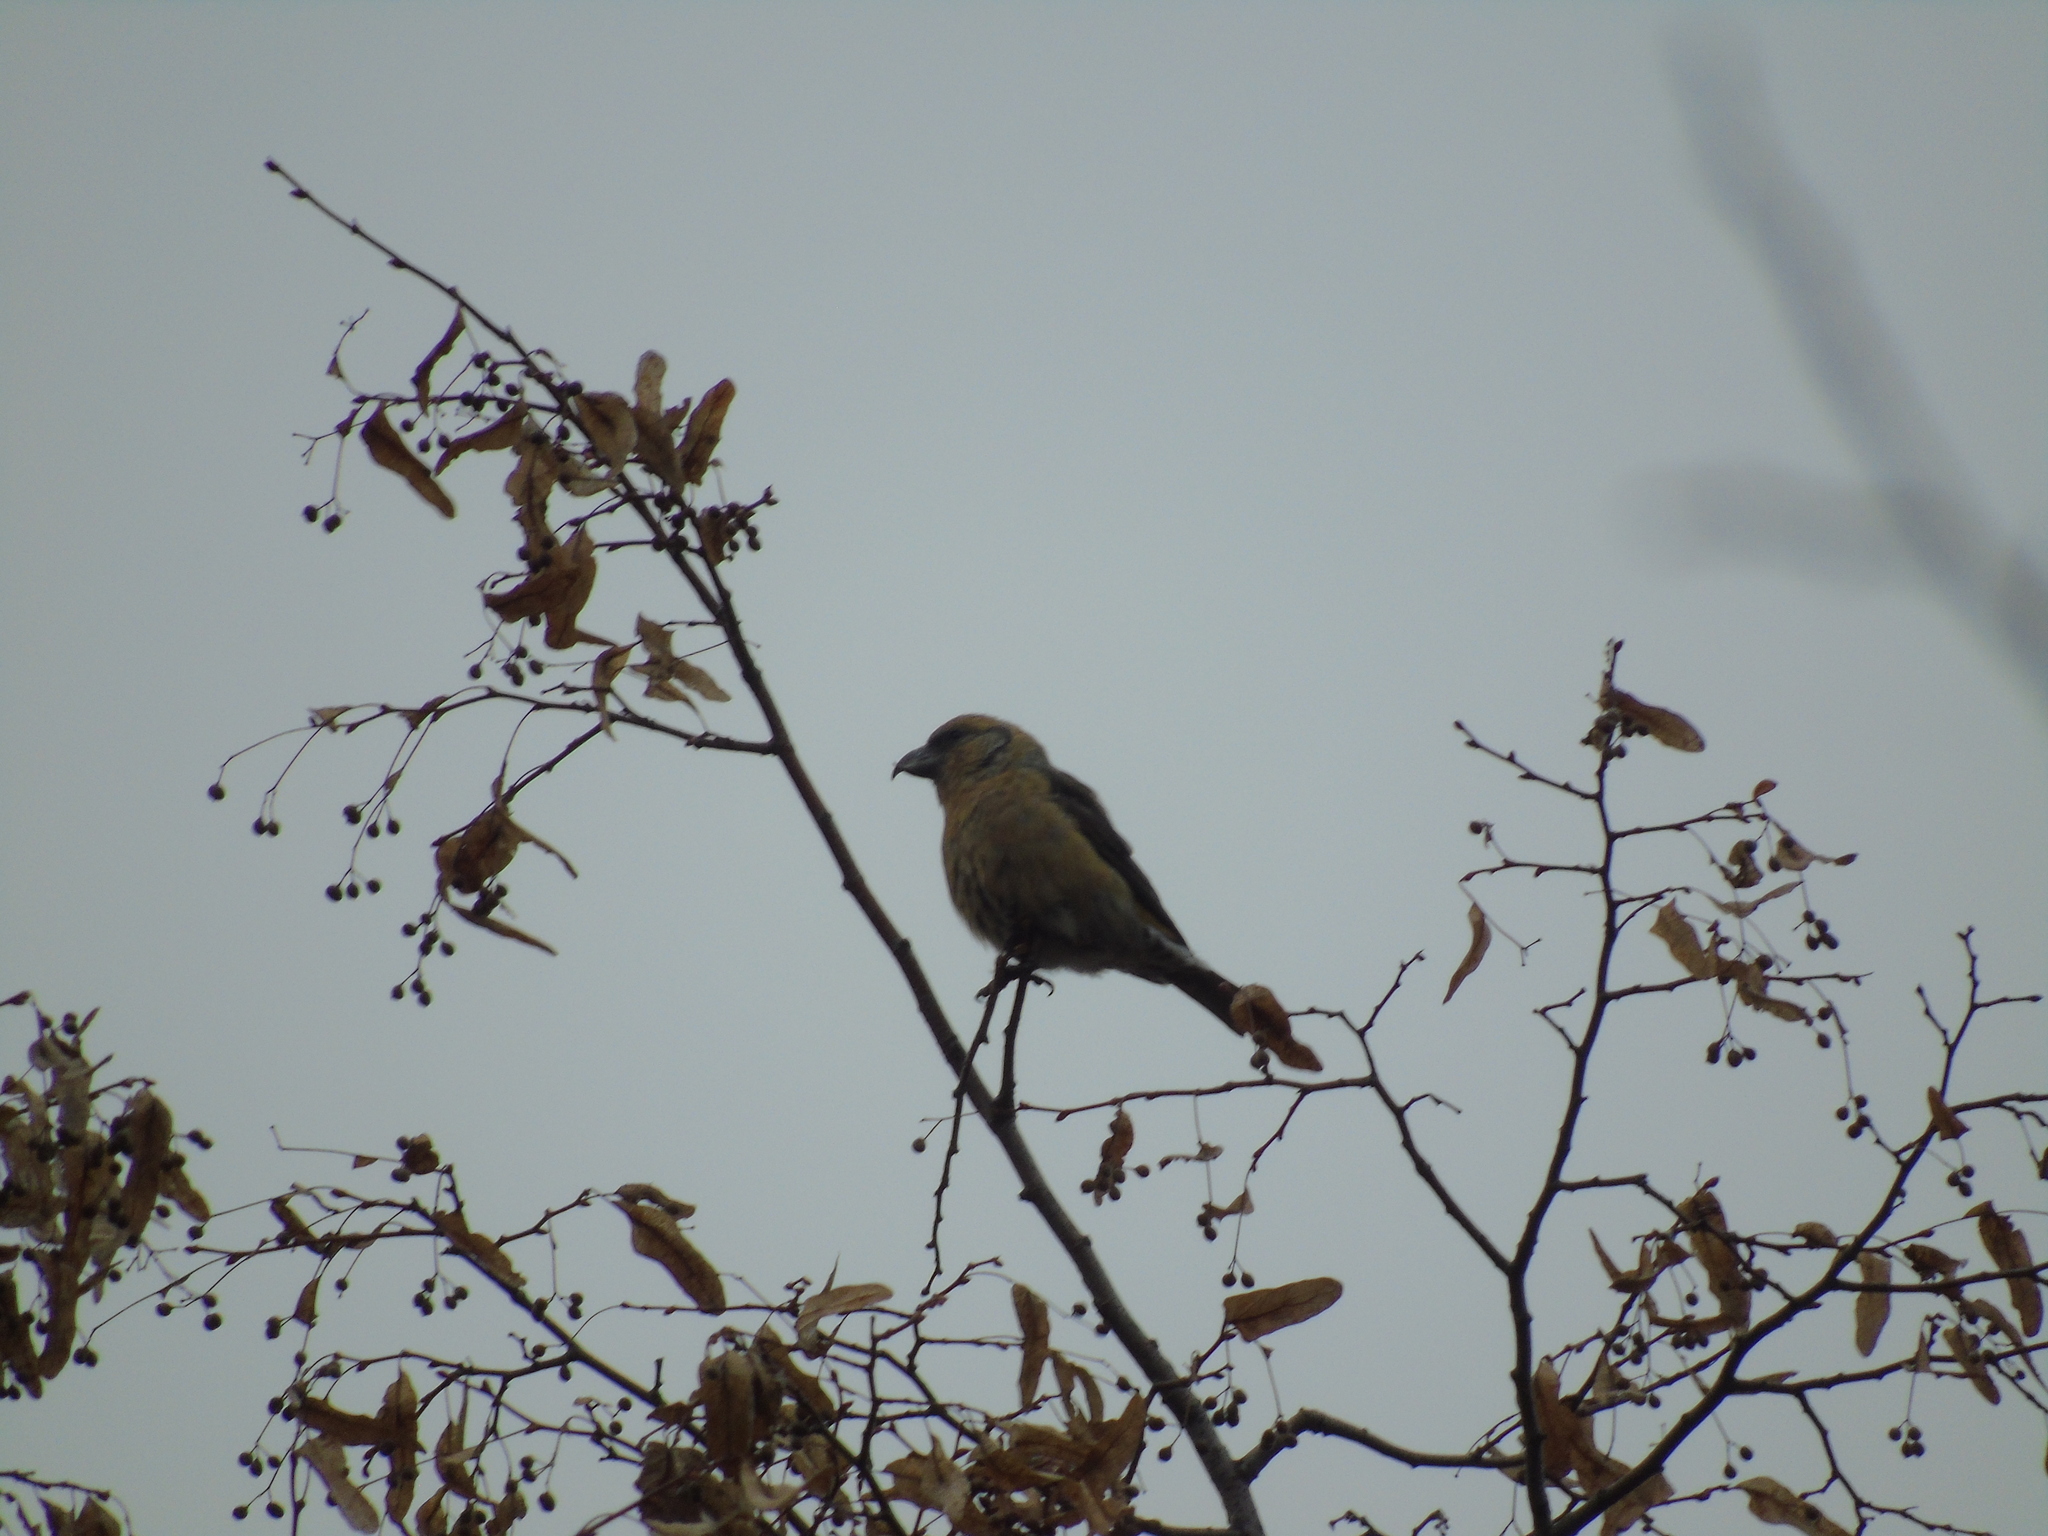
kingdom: Animalia
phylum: Chordata
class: Aves
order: Passeriformes
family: Fringillidae
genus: Loxia
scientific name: Loxia curvirostra
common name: Red crossbill
